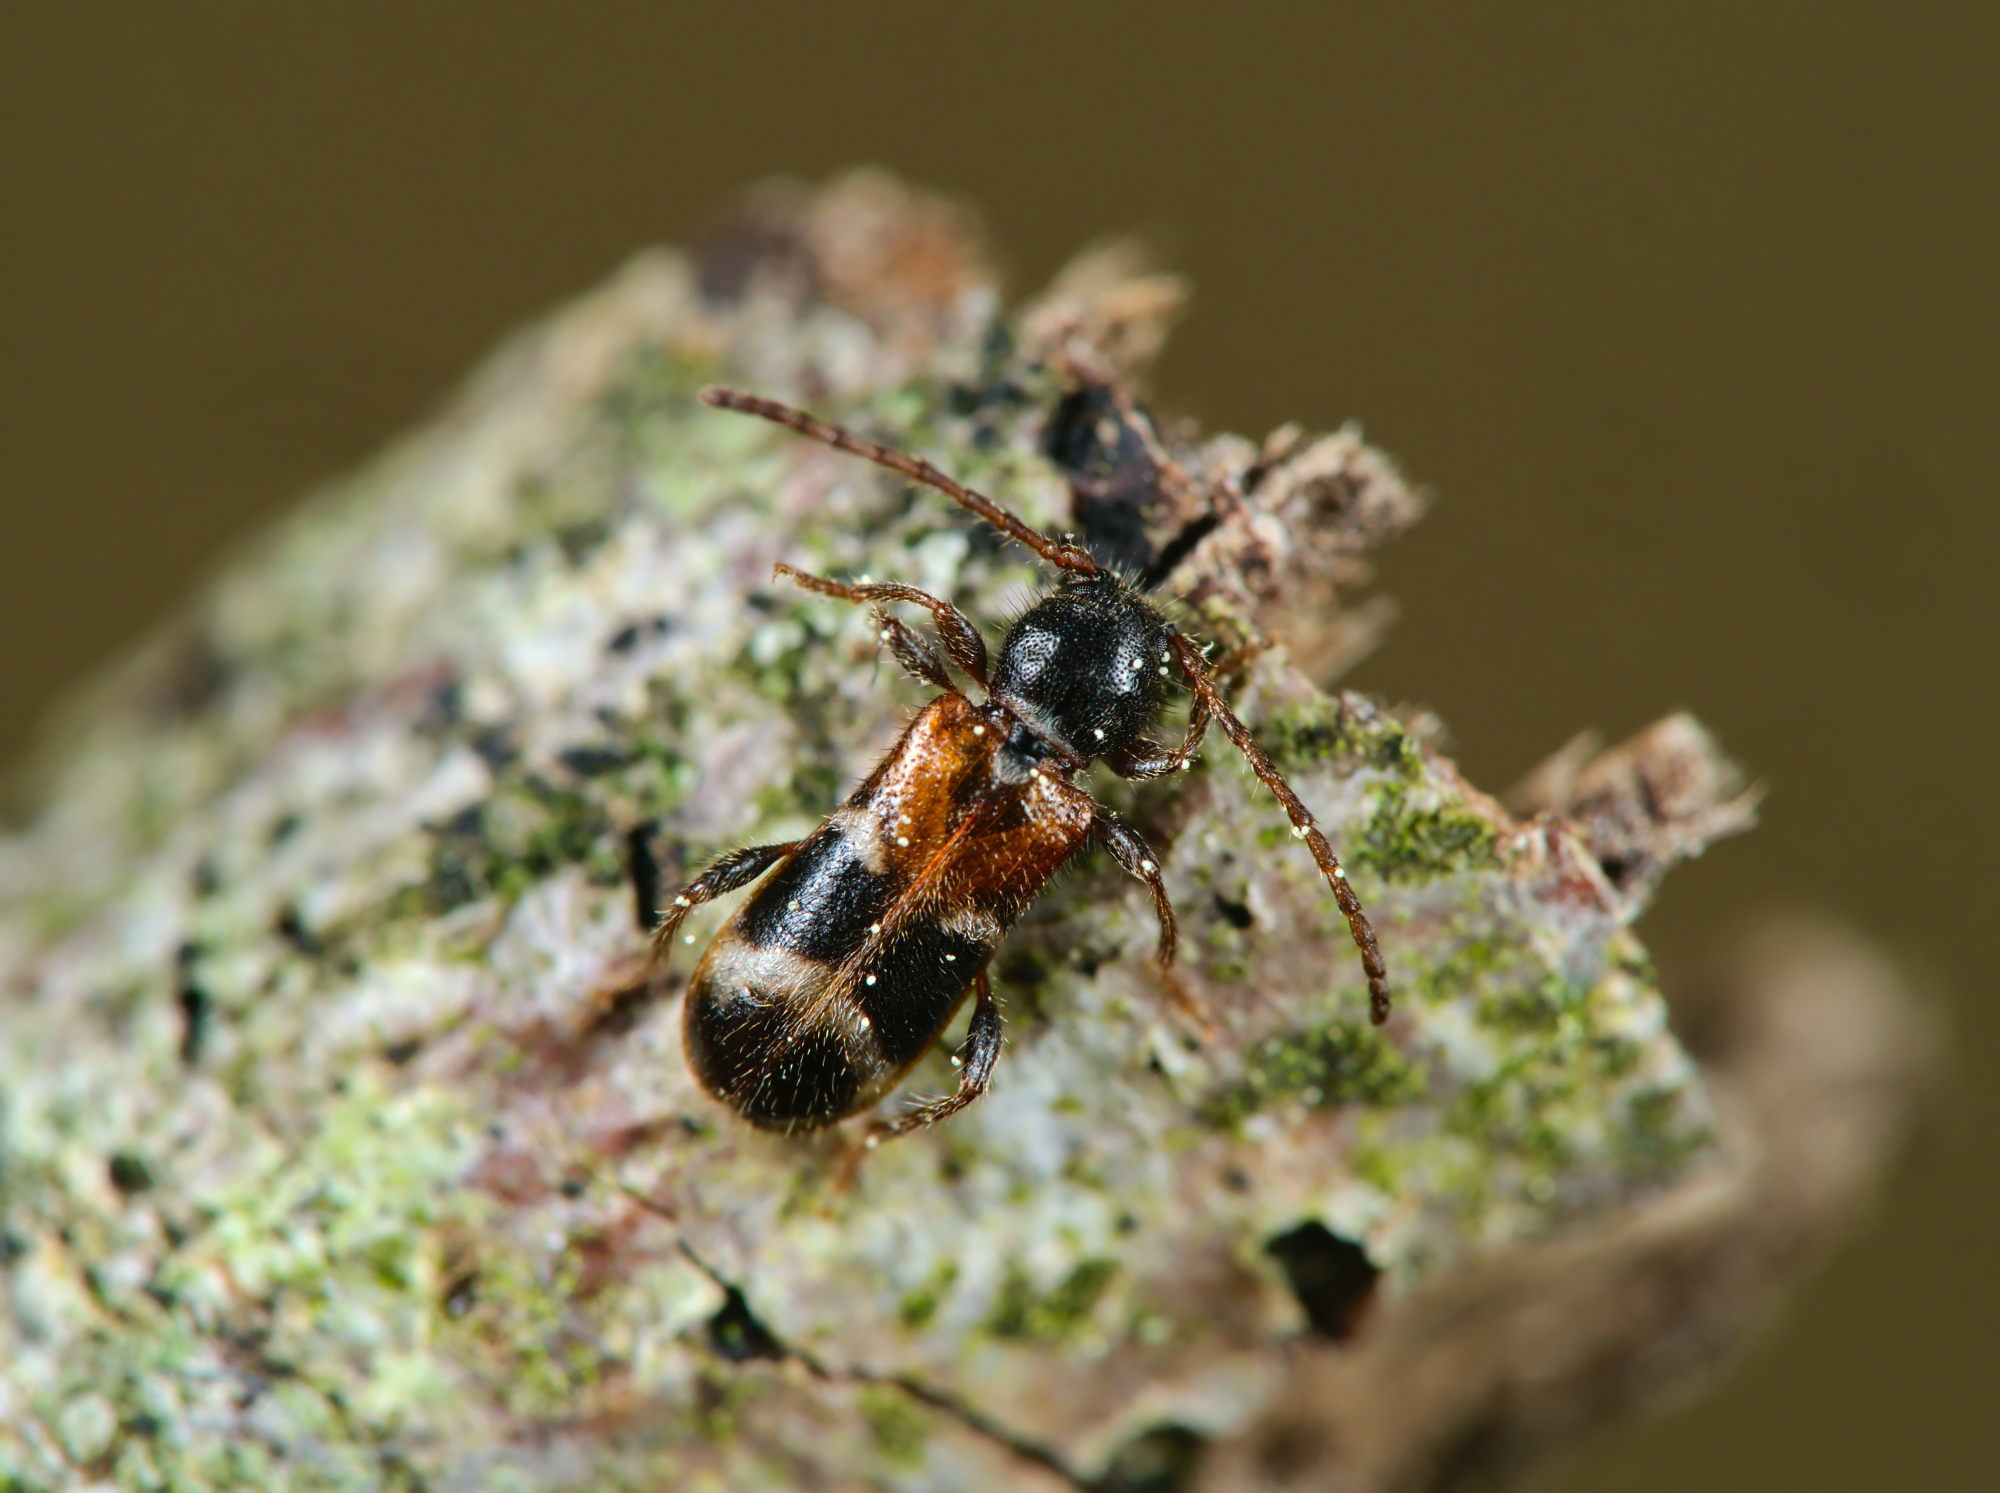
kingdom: Animalia
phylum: Arthropoda
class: Insecta
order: Coleoptera
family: Cerambycidae
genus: Poecilium
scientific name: Poecilium alni
